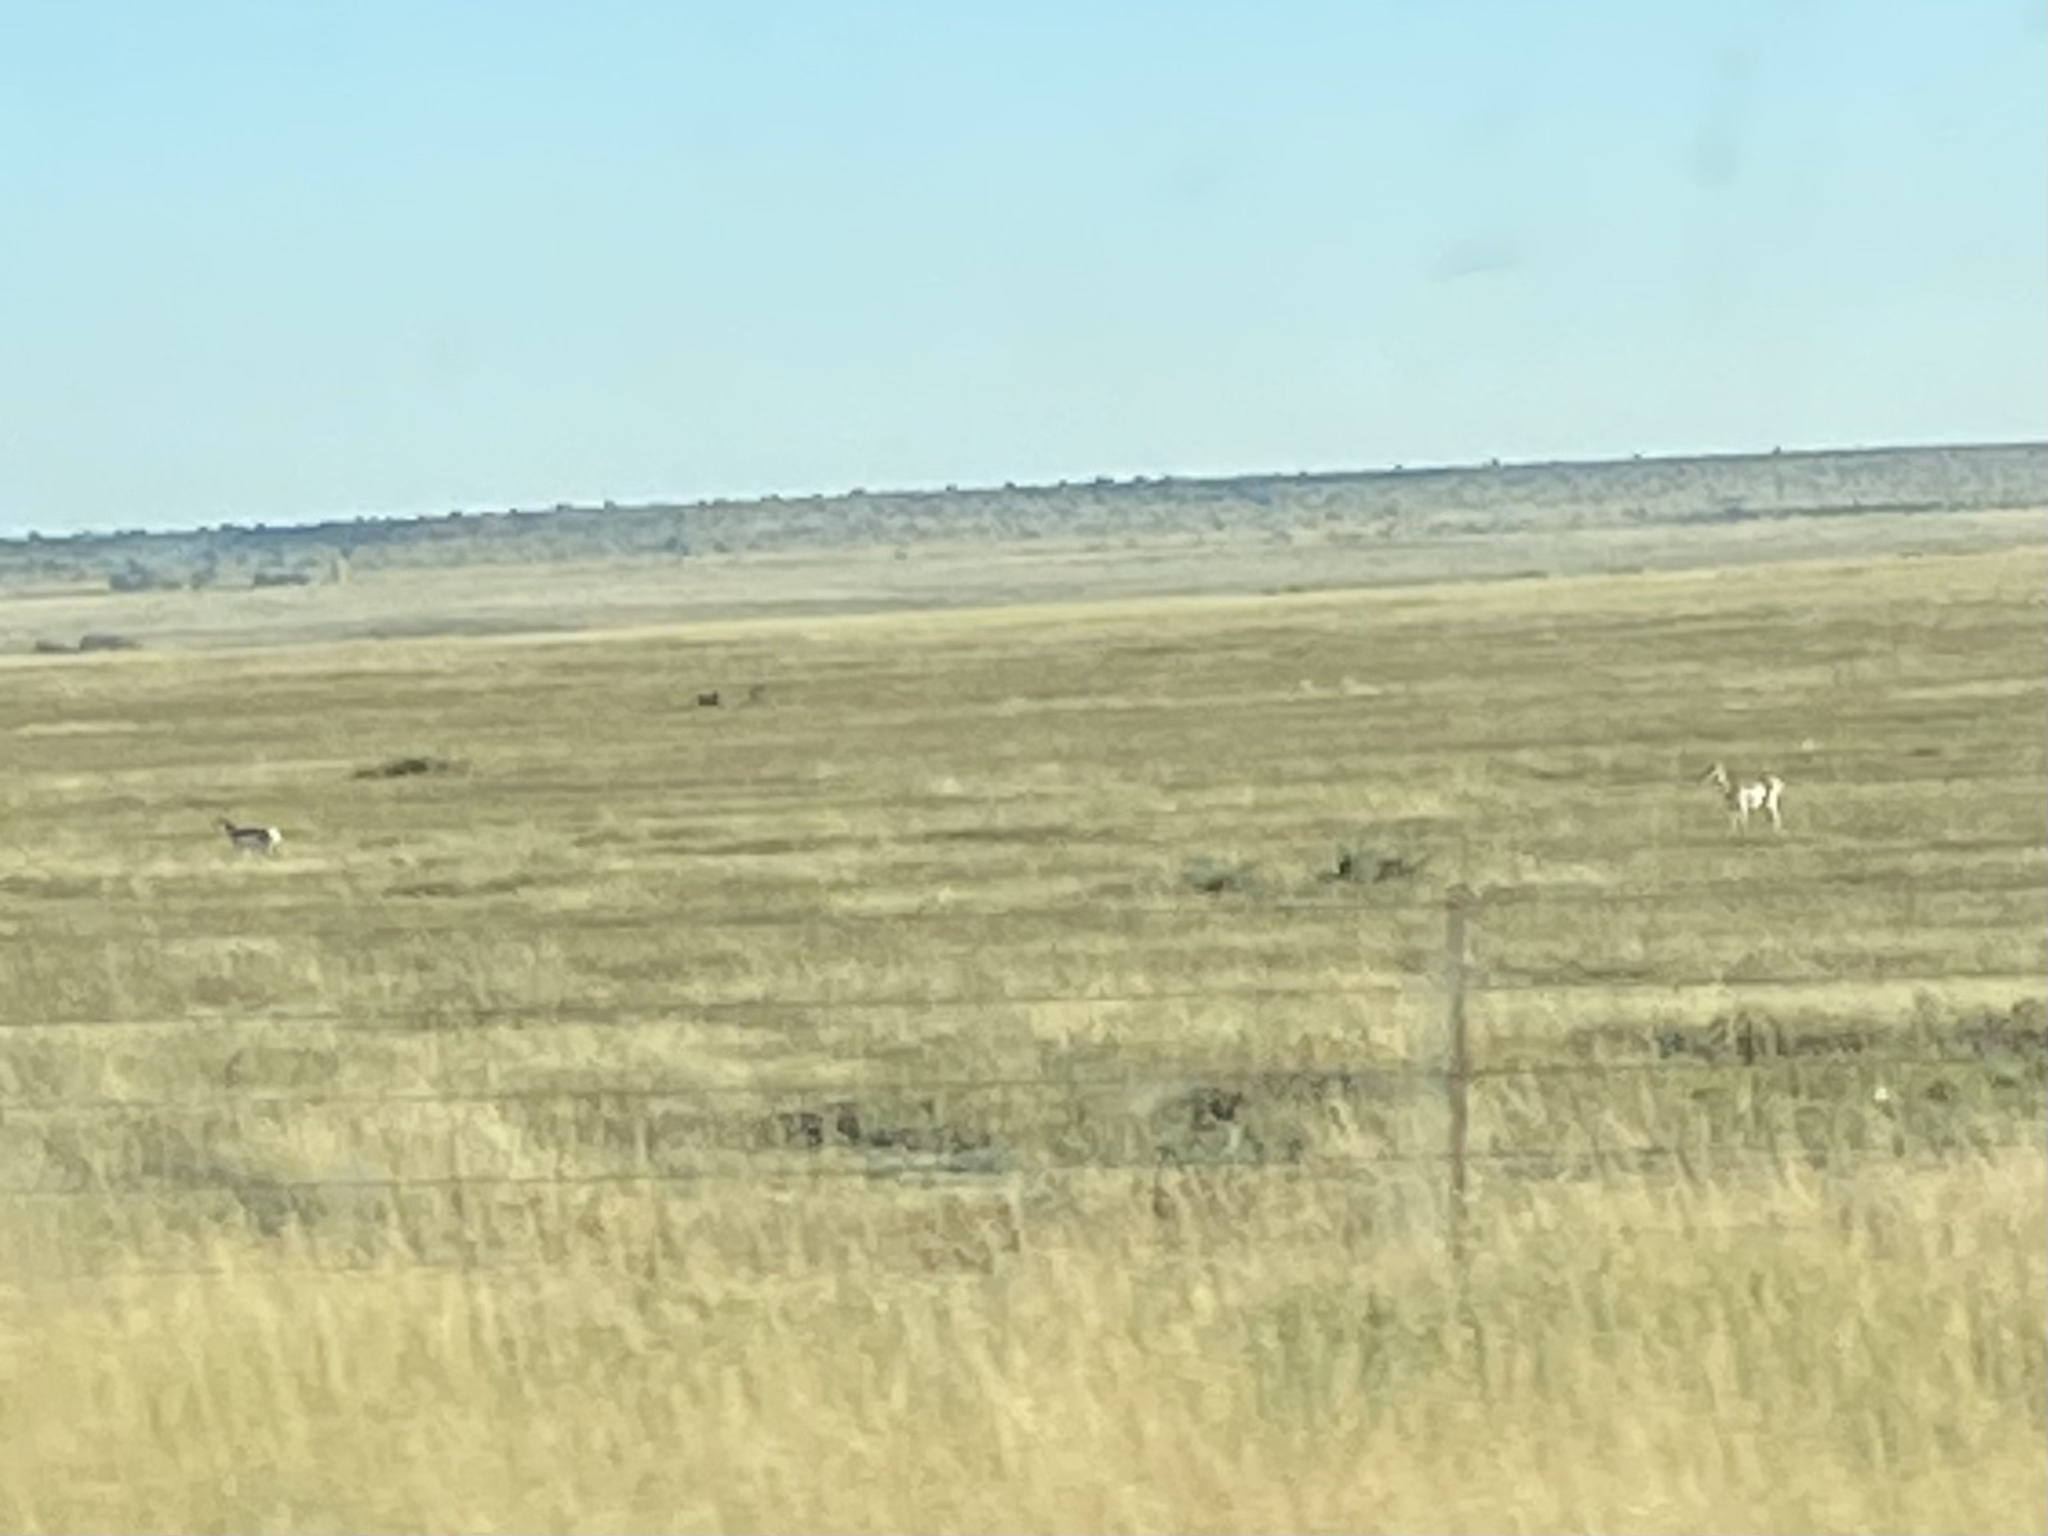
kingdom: Animalia
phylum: Chordata
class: Mammalia
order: Artiodactyla
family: Antilocapridae
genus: Antilocapra
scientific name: Antilocapra americana
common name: Pronghorn
